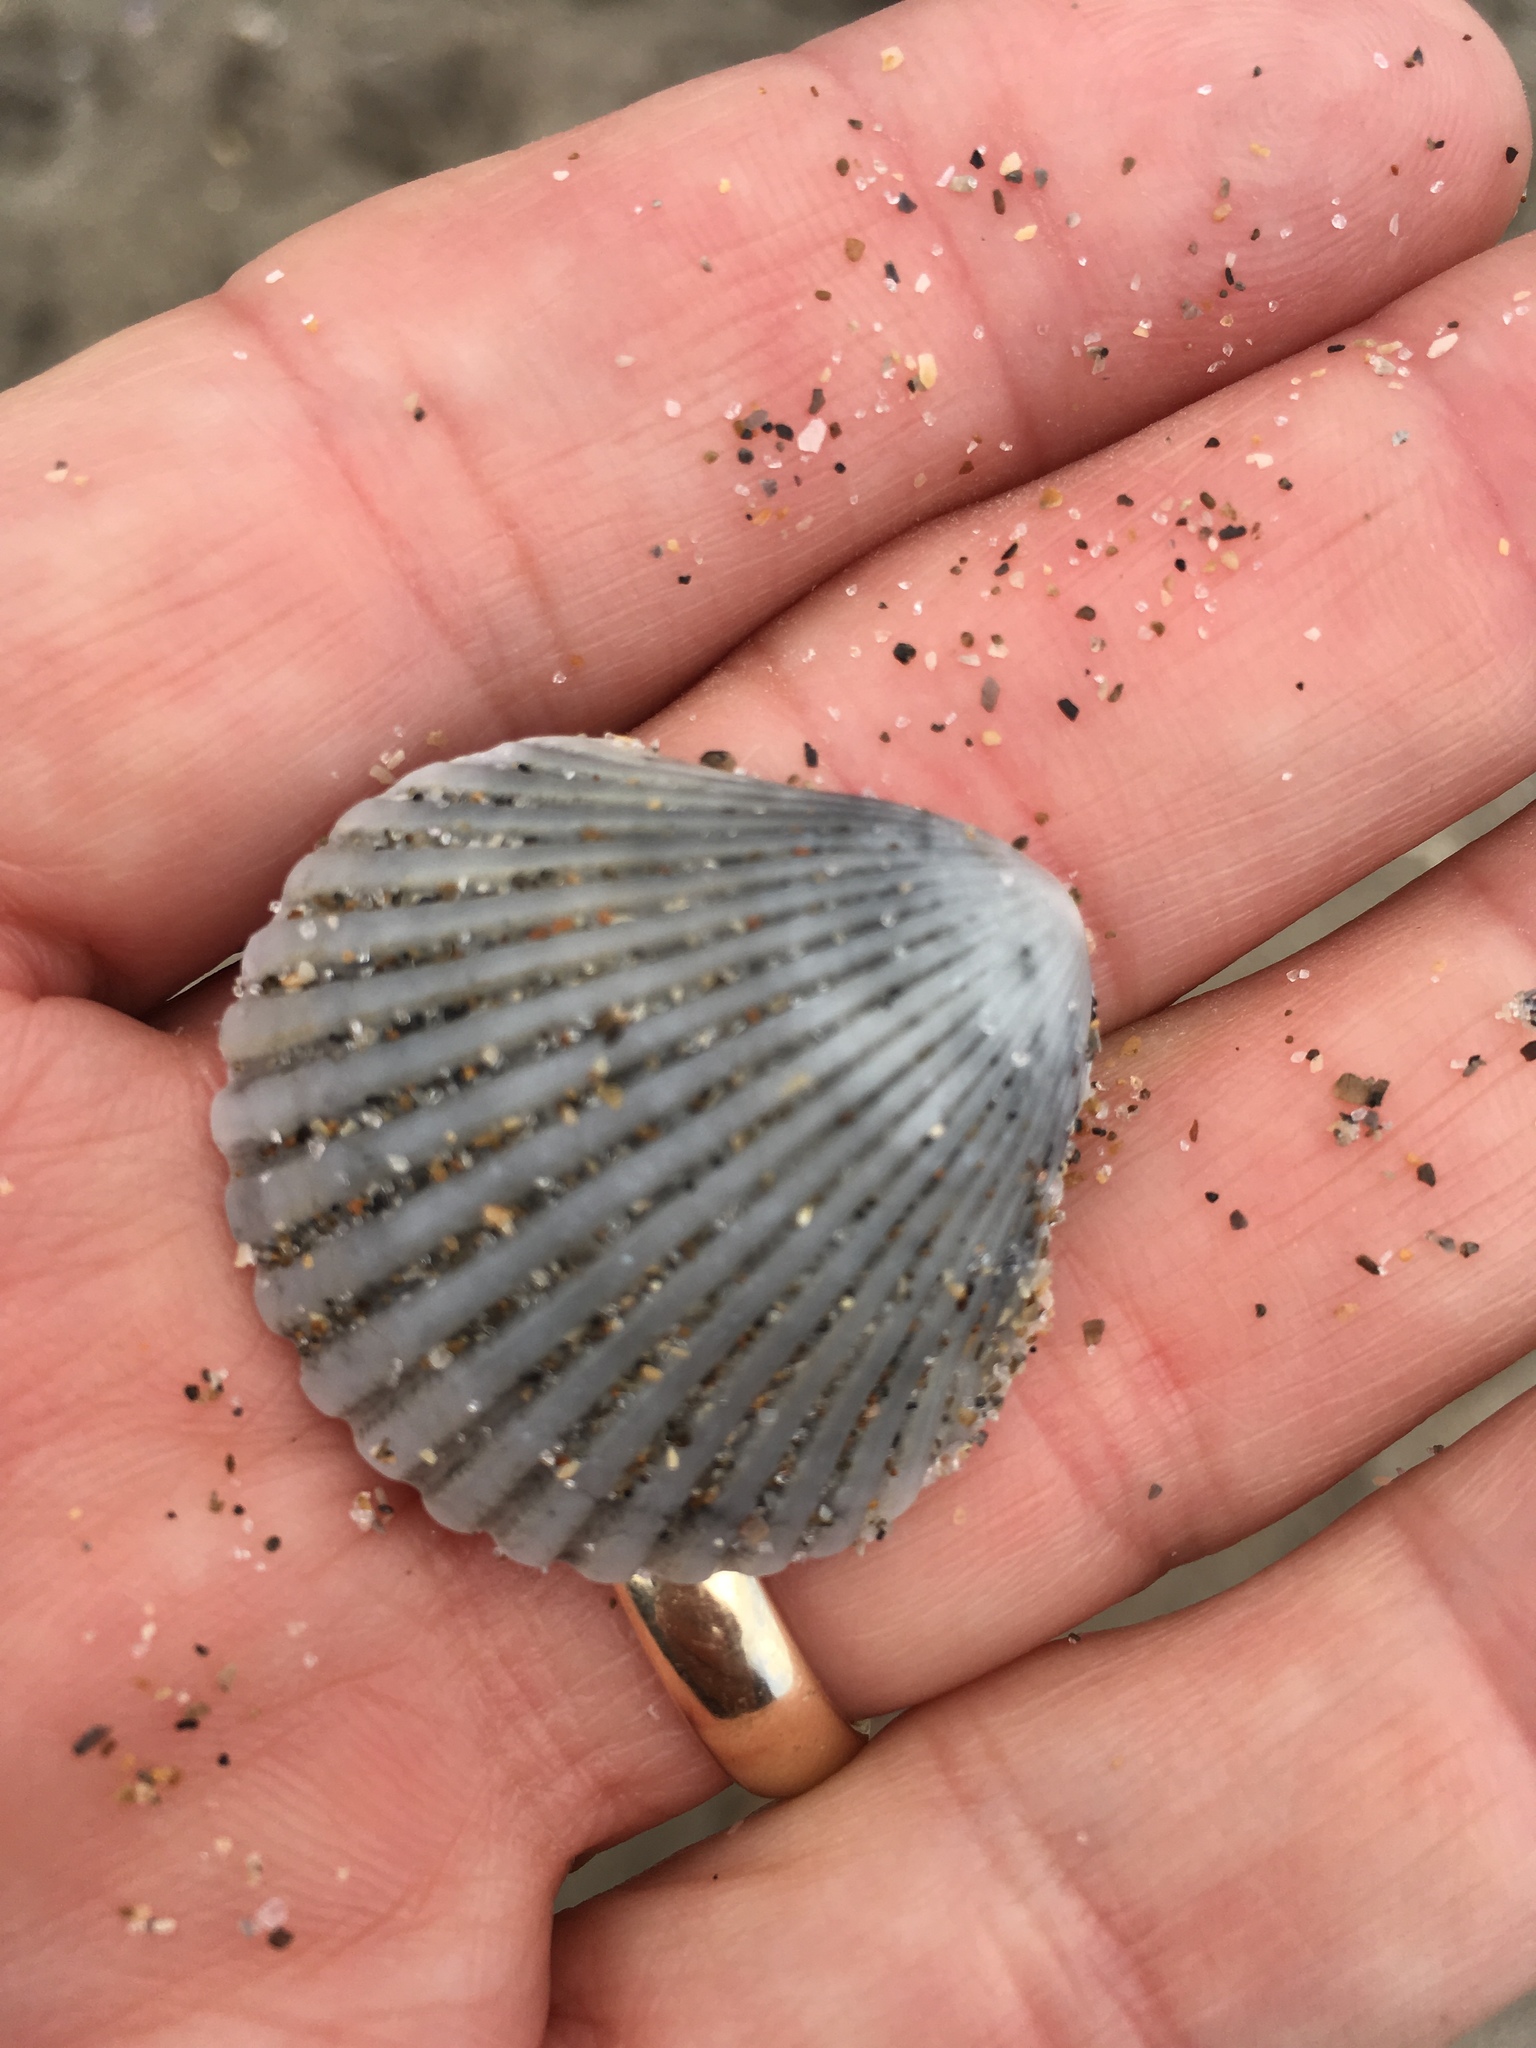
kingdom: Animalia
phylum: Mollusca
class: Bivalvia
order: Pectinida
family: Pectinidae
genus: Argopecten
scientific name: Argopecten gibbus
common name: Atlantic calico scallop
